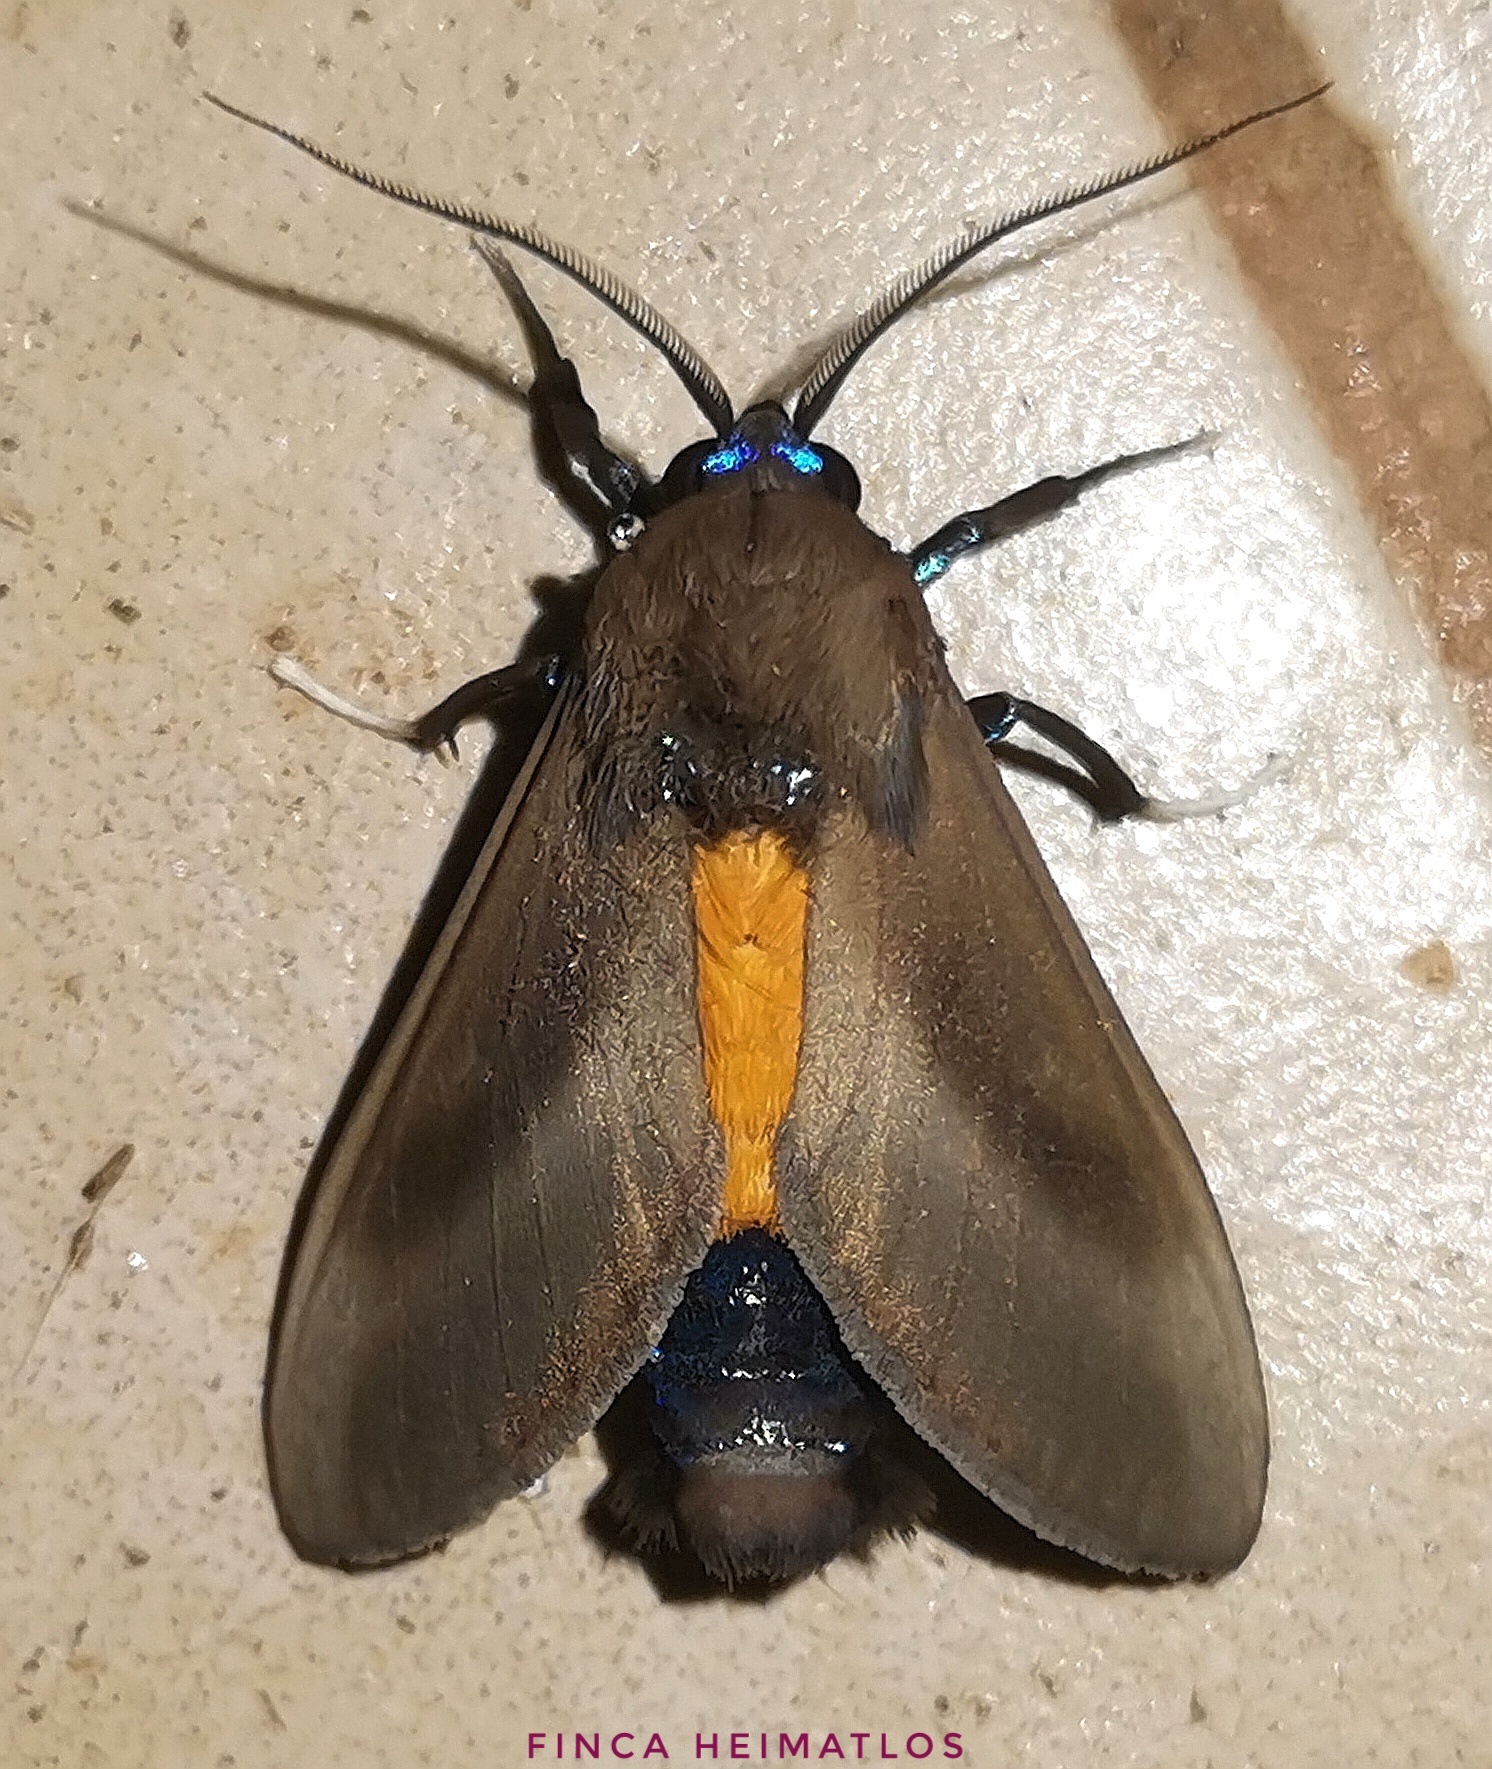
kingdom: Animalia
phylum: Arthropoda
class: Insecta
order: Lepidoptera
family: Erebidae
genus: Himerarctia
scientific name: Himerarctia griseipennis
